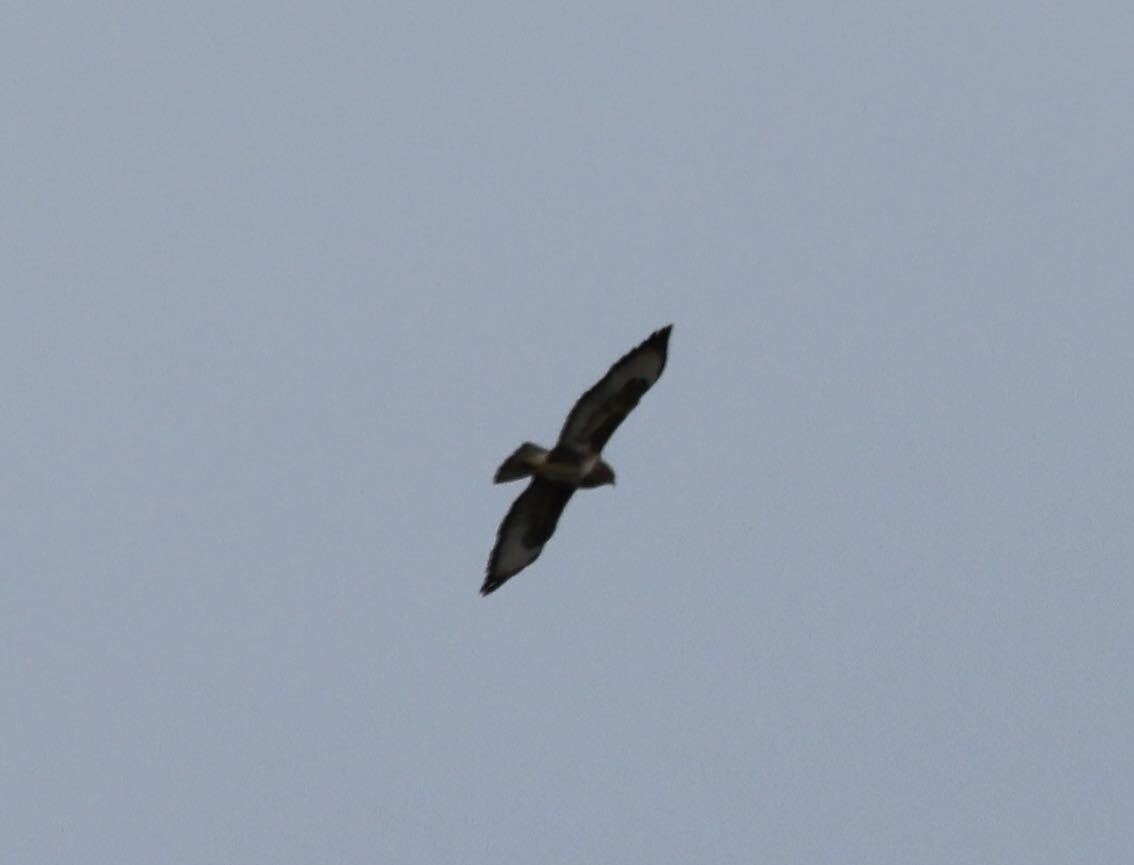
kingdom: Animalia
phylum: Chordata
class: Aves
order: Accipitriformes
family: Accipitridae
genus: Buteo
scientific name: Buteo buteo
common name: Common buzzard
